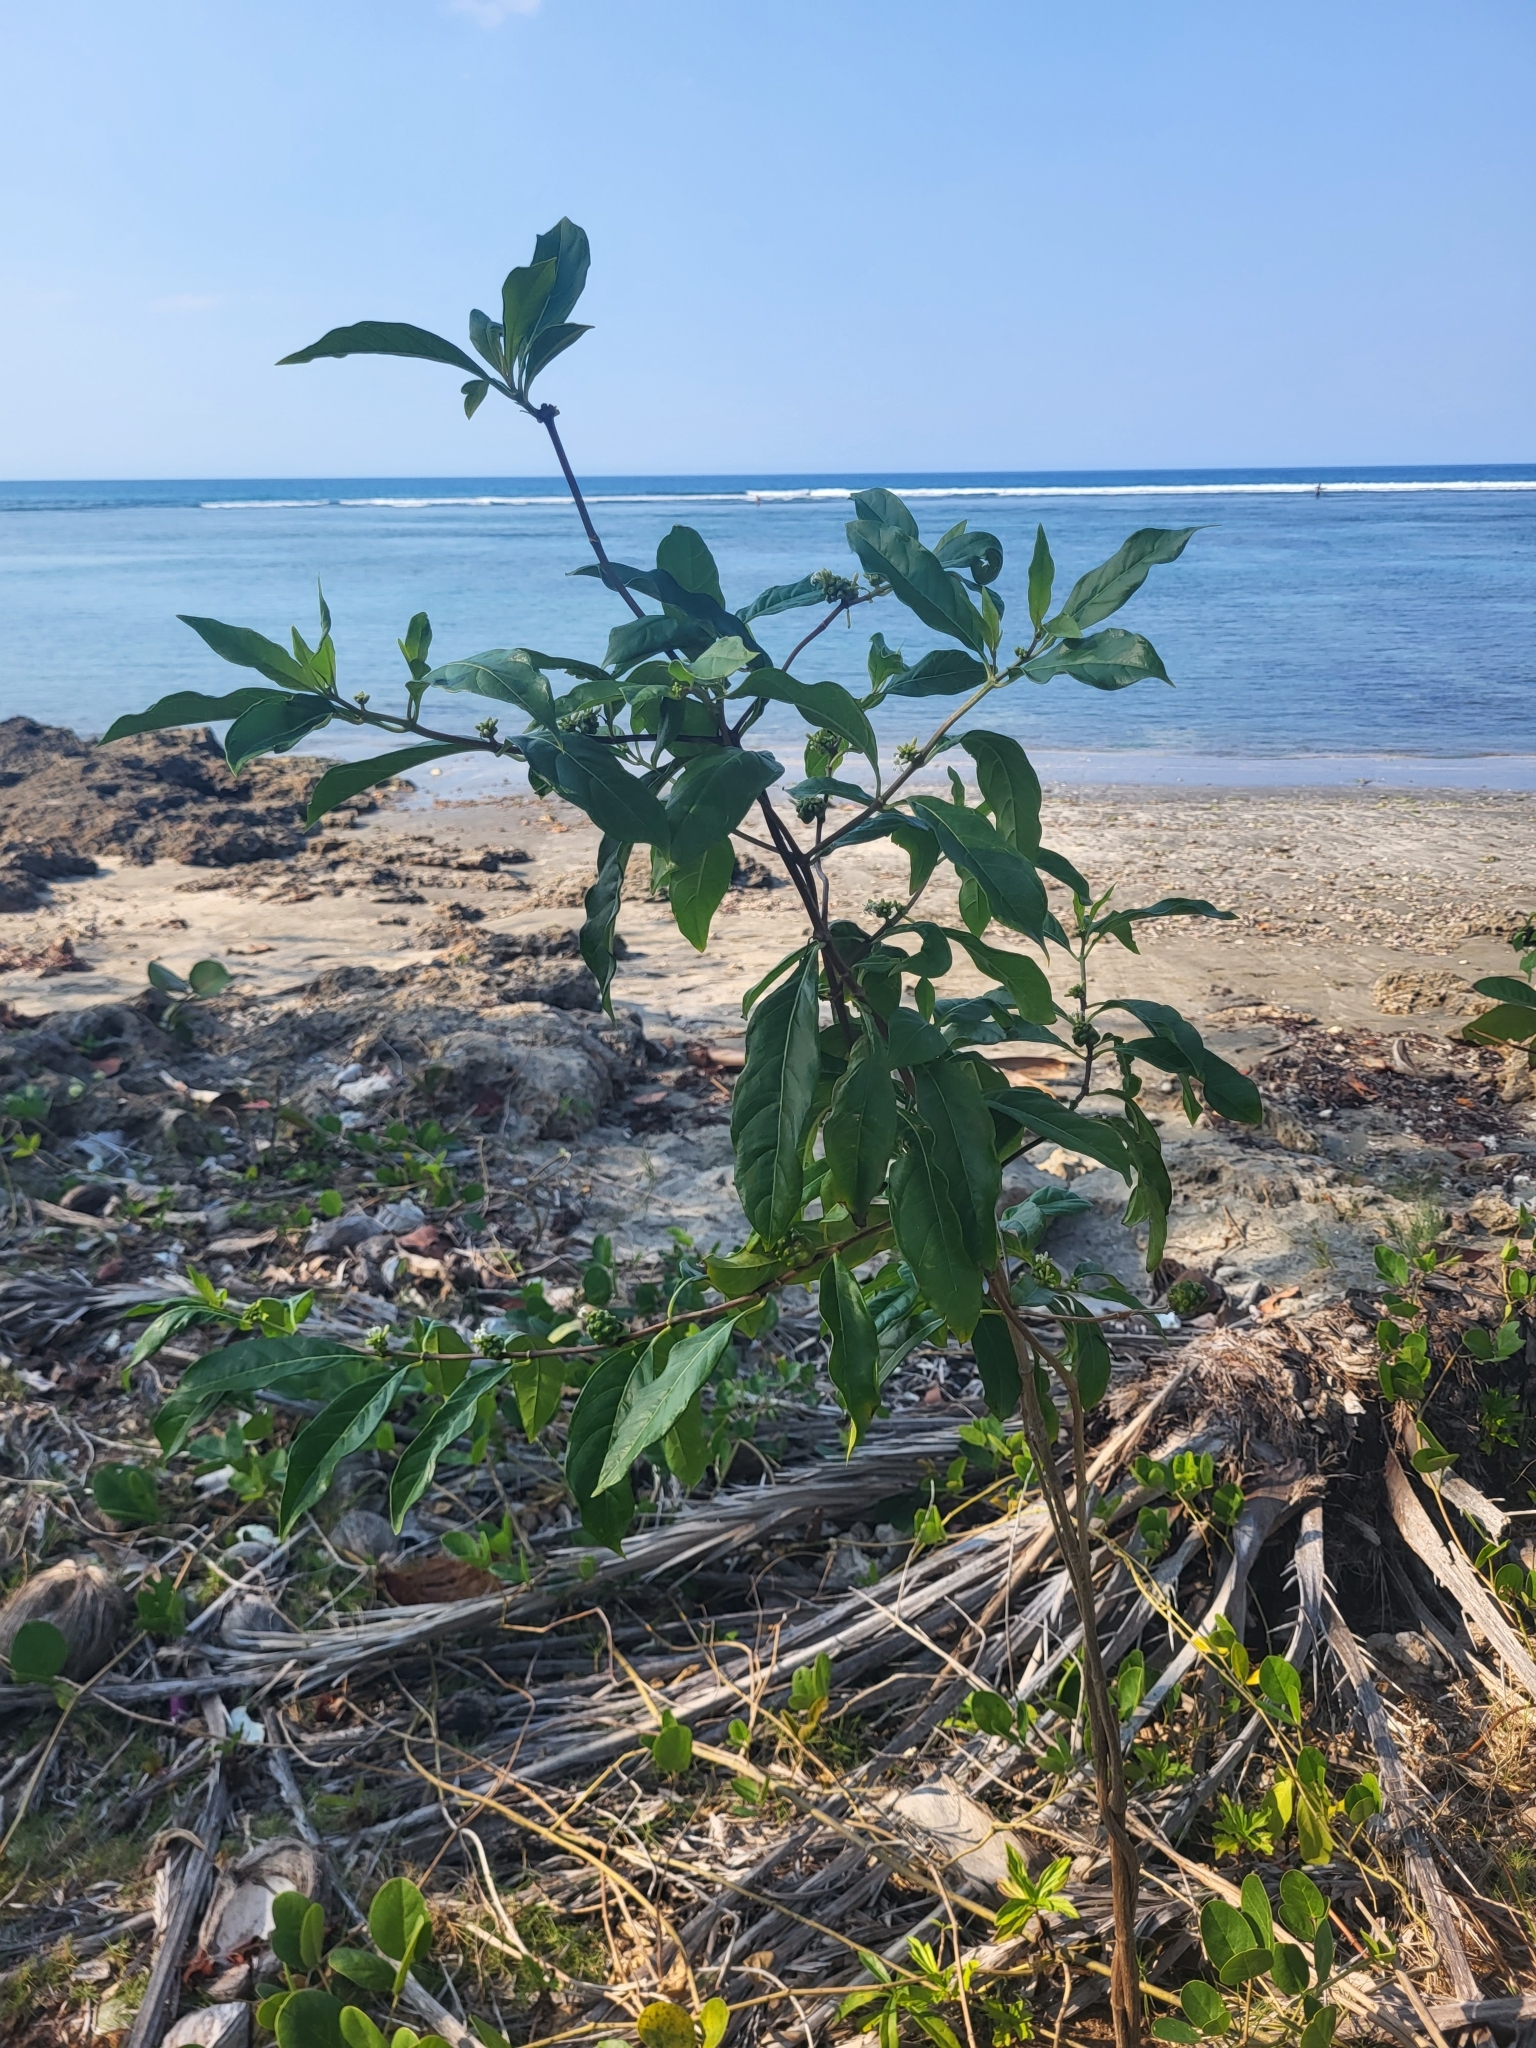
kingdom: Plantae
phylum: Tracheophyta
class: Magnoliopsida
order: Gentianales
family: Rubiaceae
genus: Morinda
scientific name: Morinda royoc
